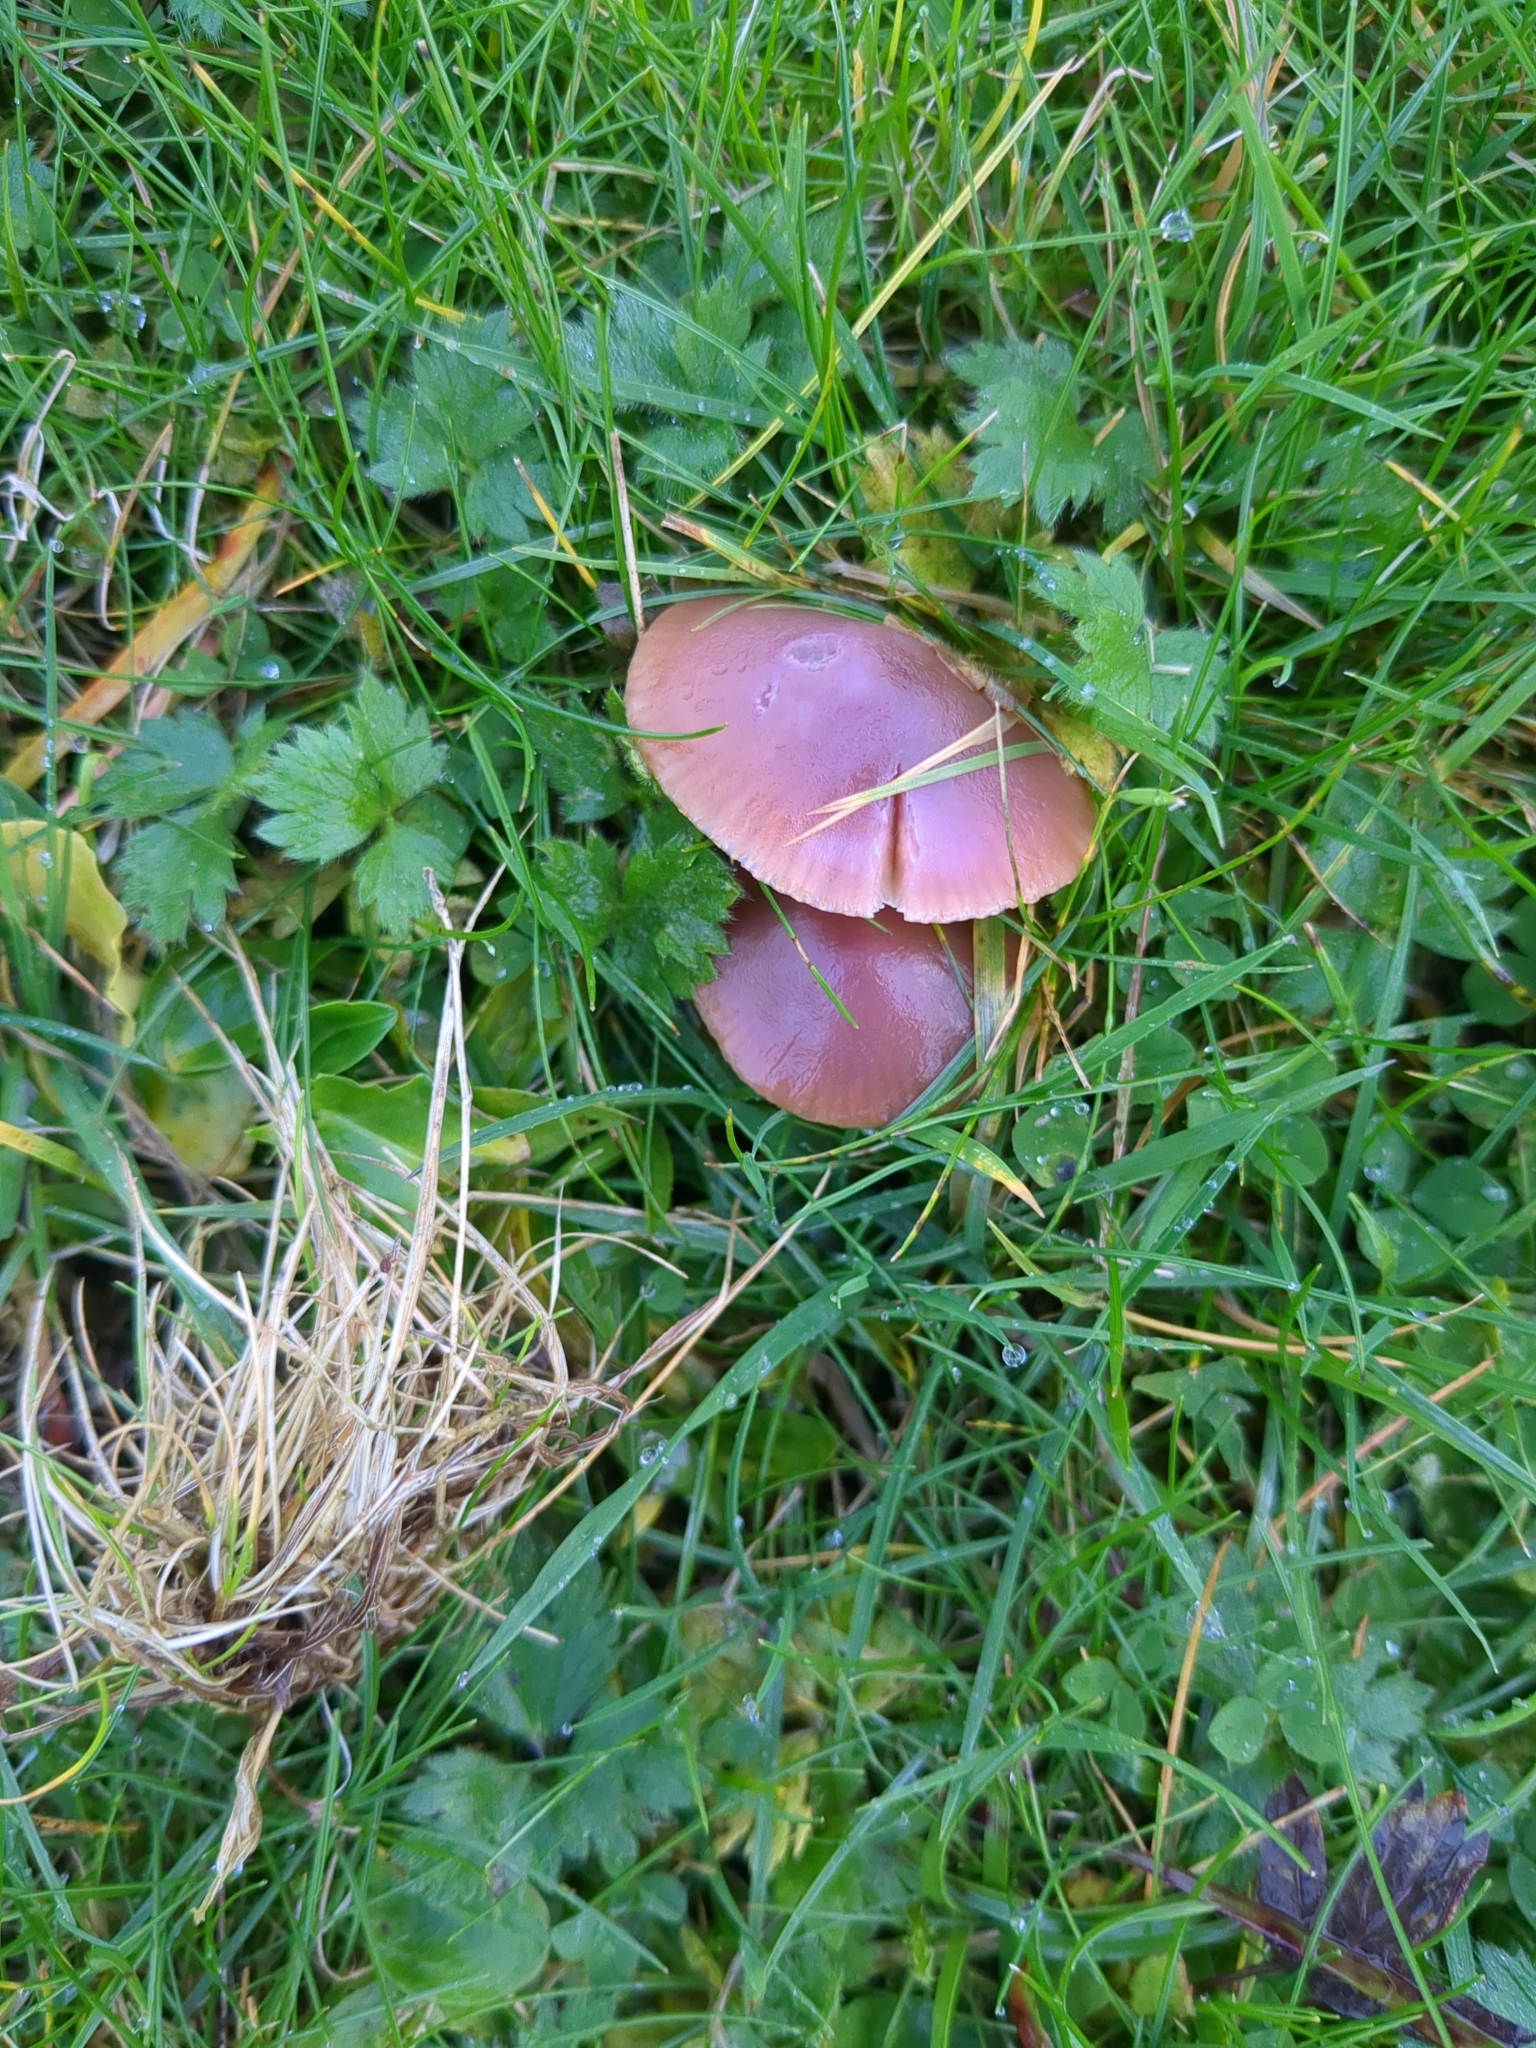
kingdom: Fungi
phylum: Basidiomycota
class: Agaricomycetes
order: Agaricales
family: Hygrophoraceae
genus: Gliophorus
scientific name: Gliophorus reginae
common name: Jubilee waxcap
